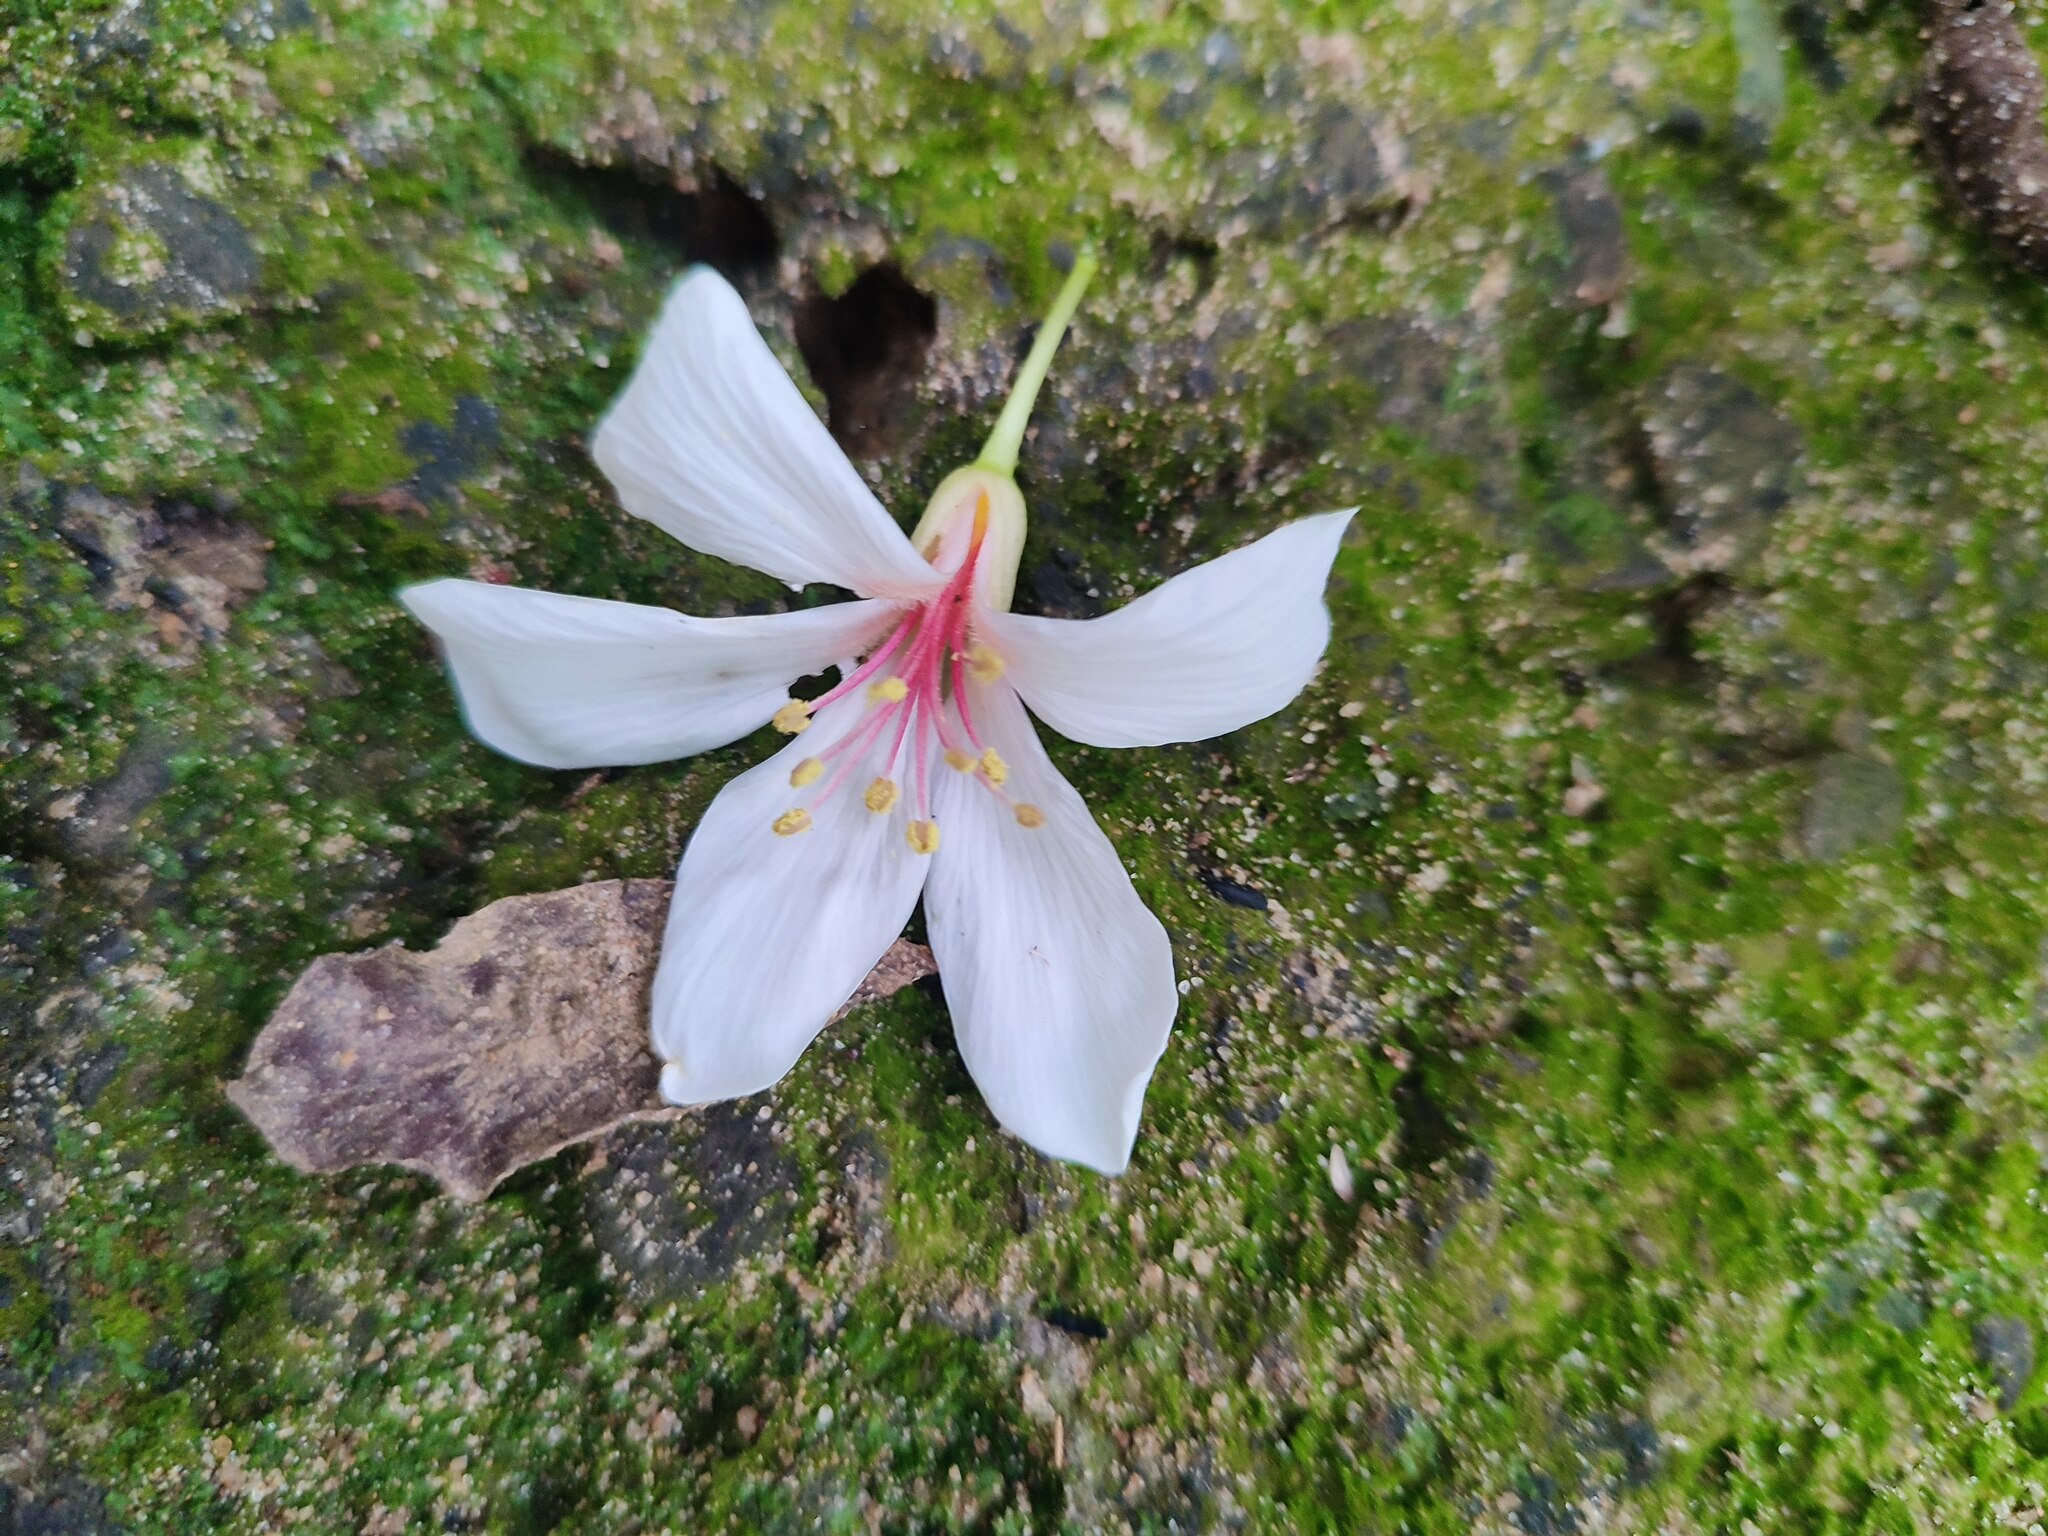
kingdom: Plantae
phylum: Tracheophyta
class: Magnoliopsida
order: Malpighiales
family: Euphorbiaceae
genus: Vernicia
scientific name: Vernicia montana
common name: Mu oil tree
